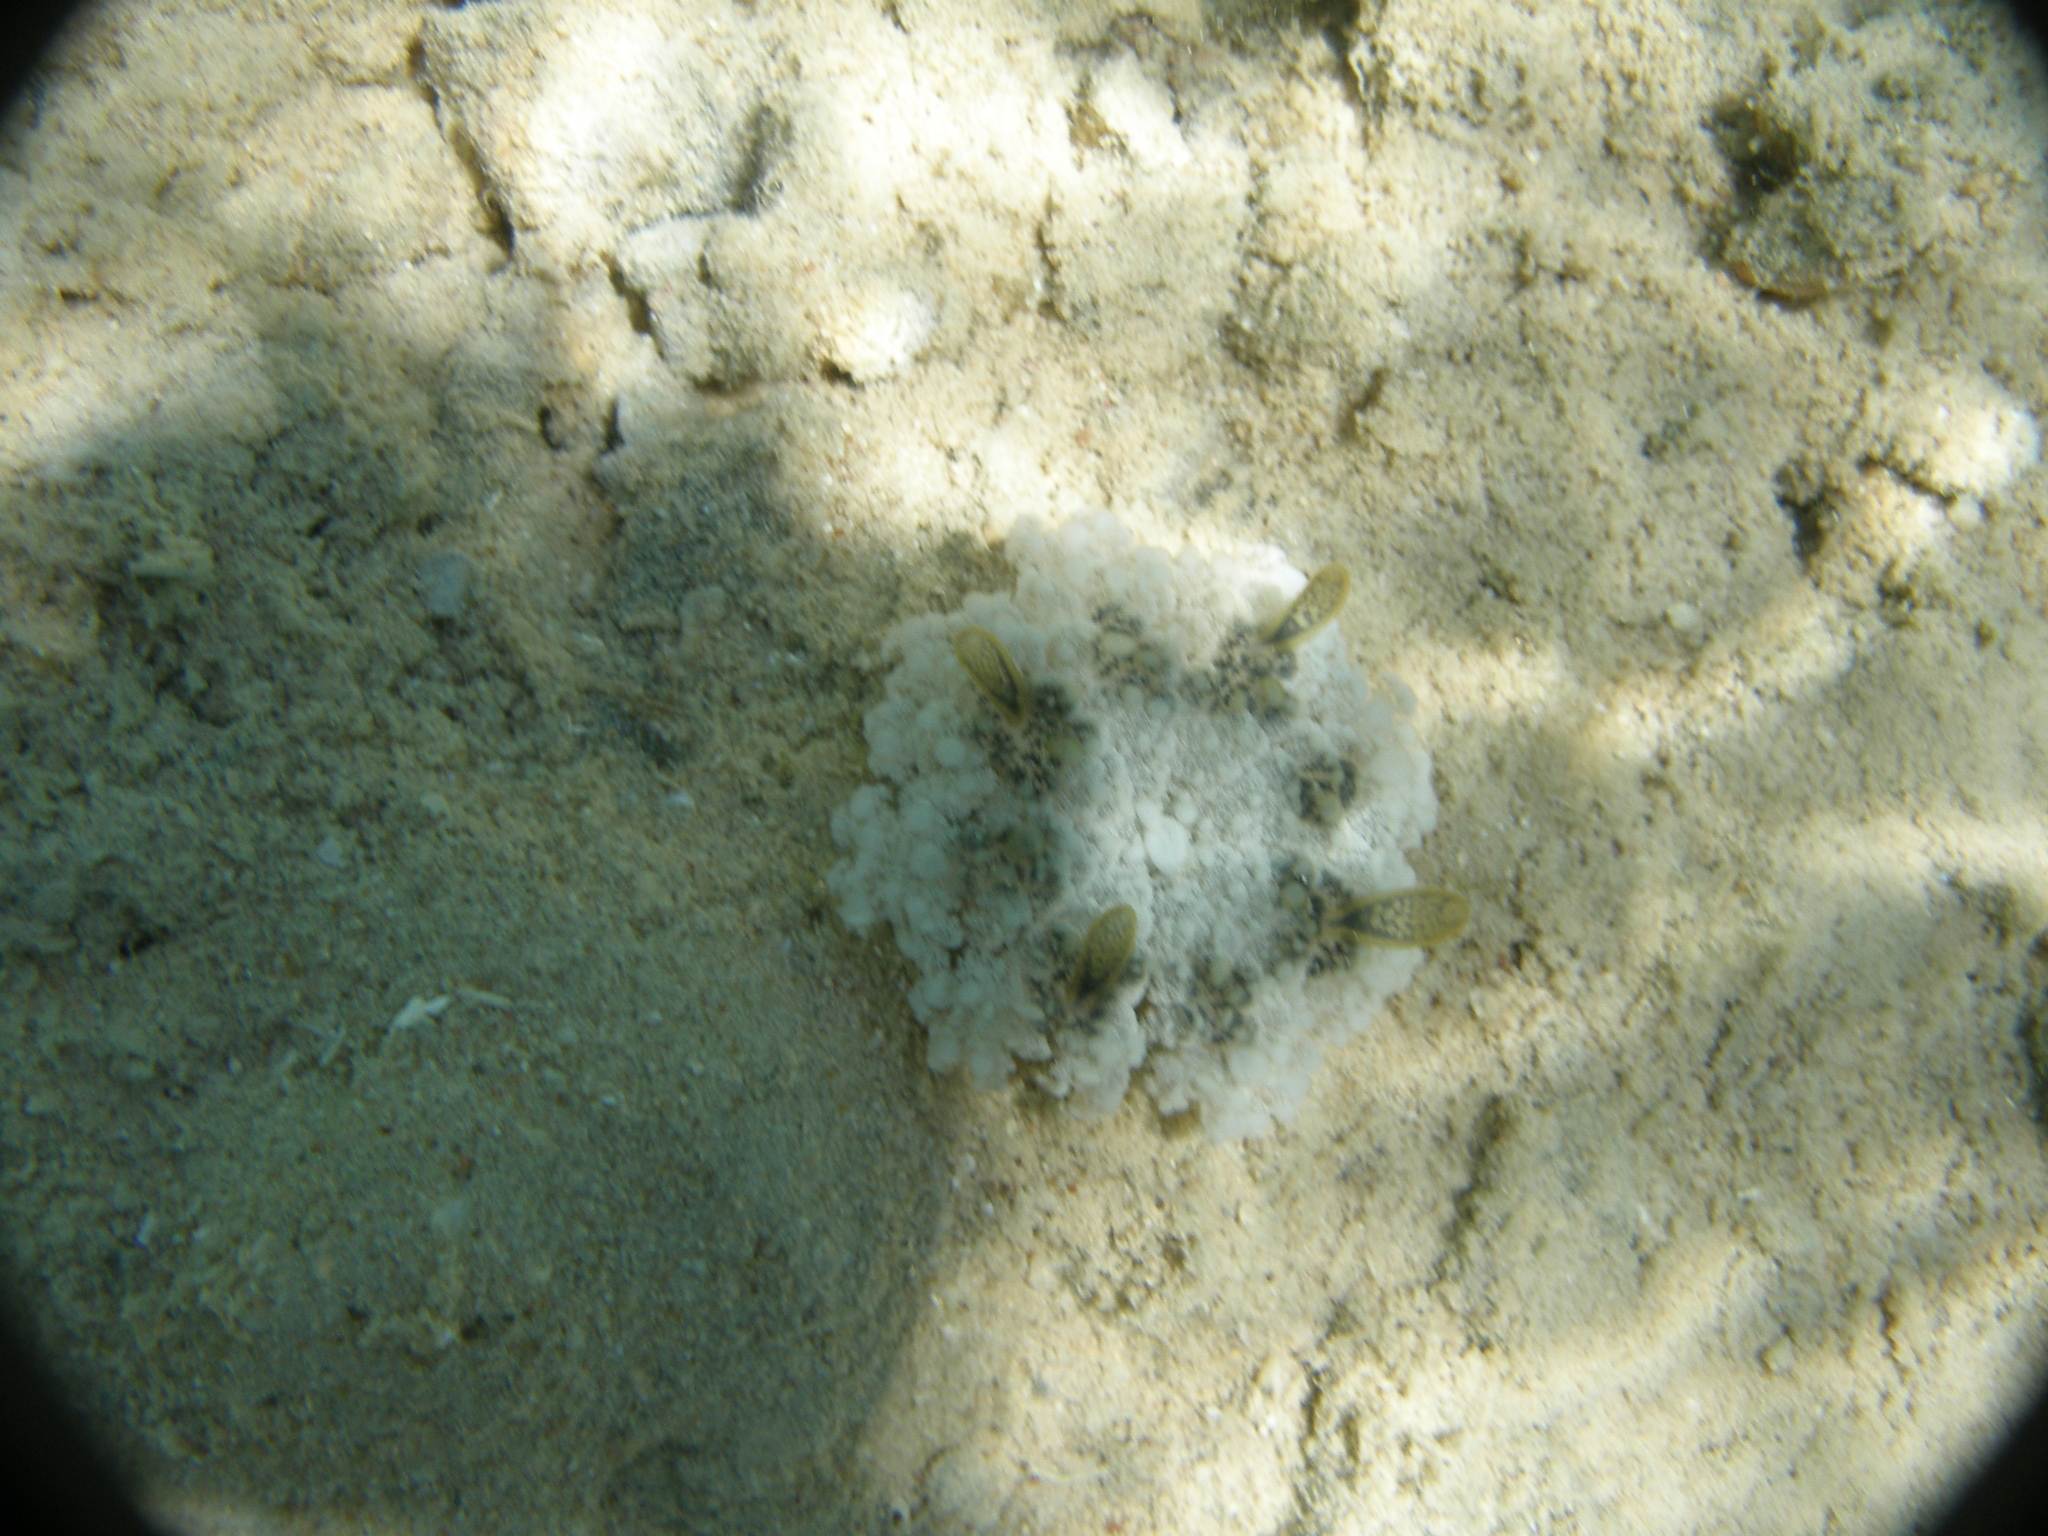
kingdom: Animalia
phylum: Cnidaria
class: Scyphozoa
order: Rhizostomeae
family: Cassiopeidae
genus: Cassiopea
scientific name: Cassiopea andromeda
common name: Upside-down jellyfish
